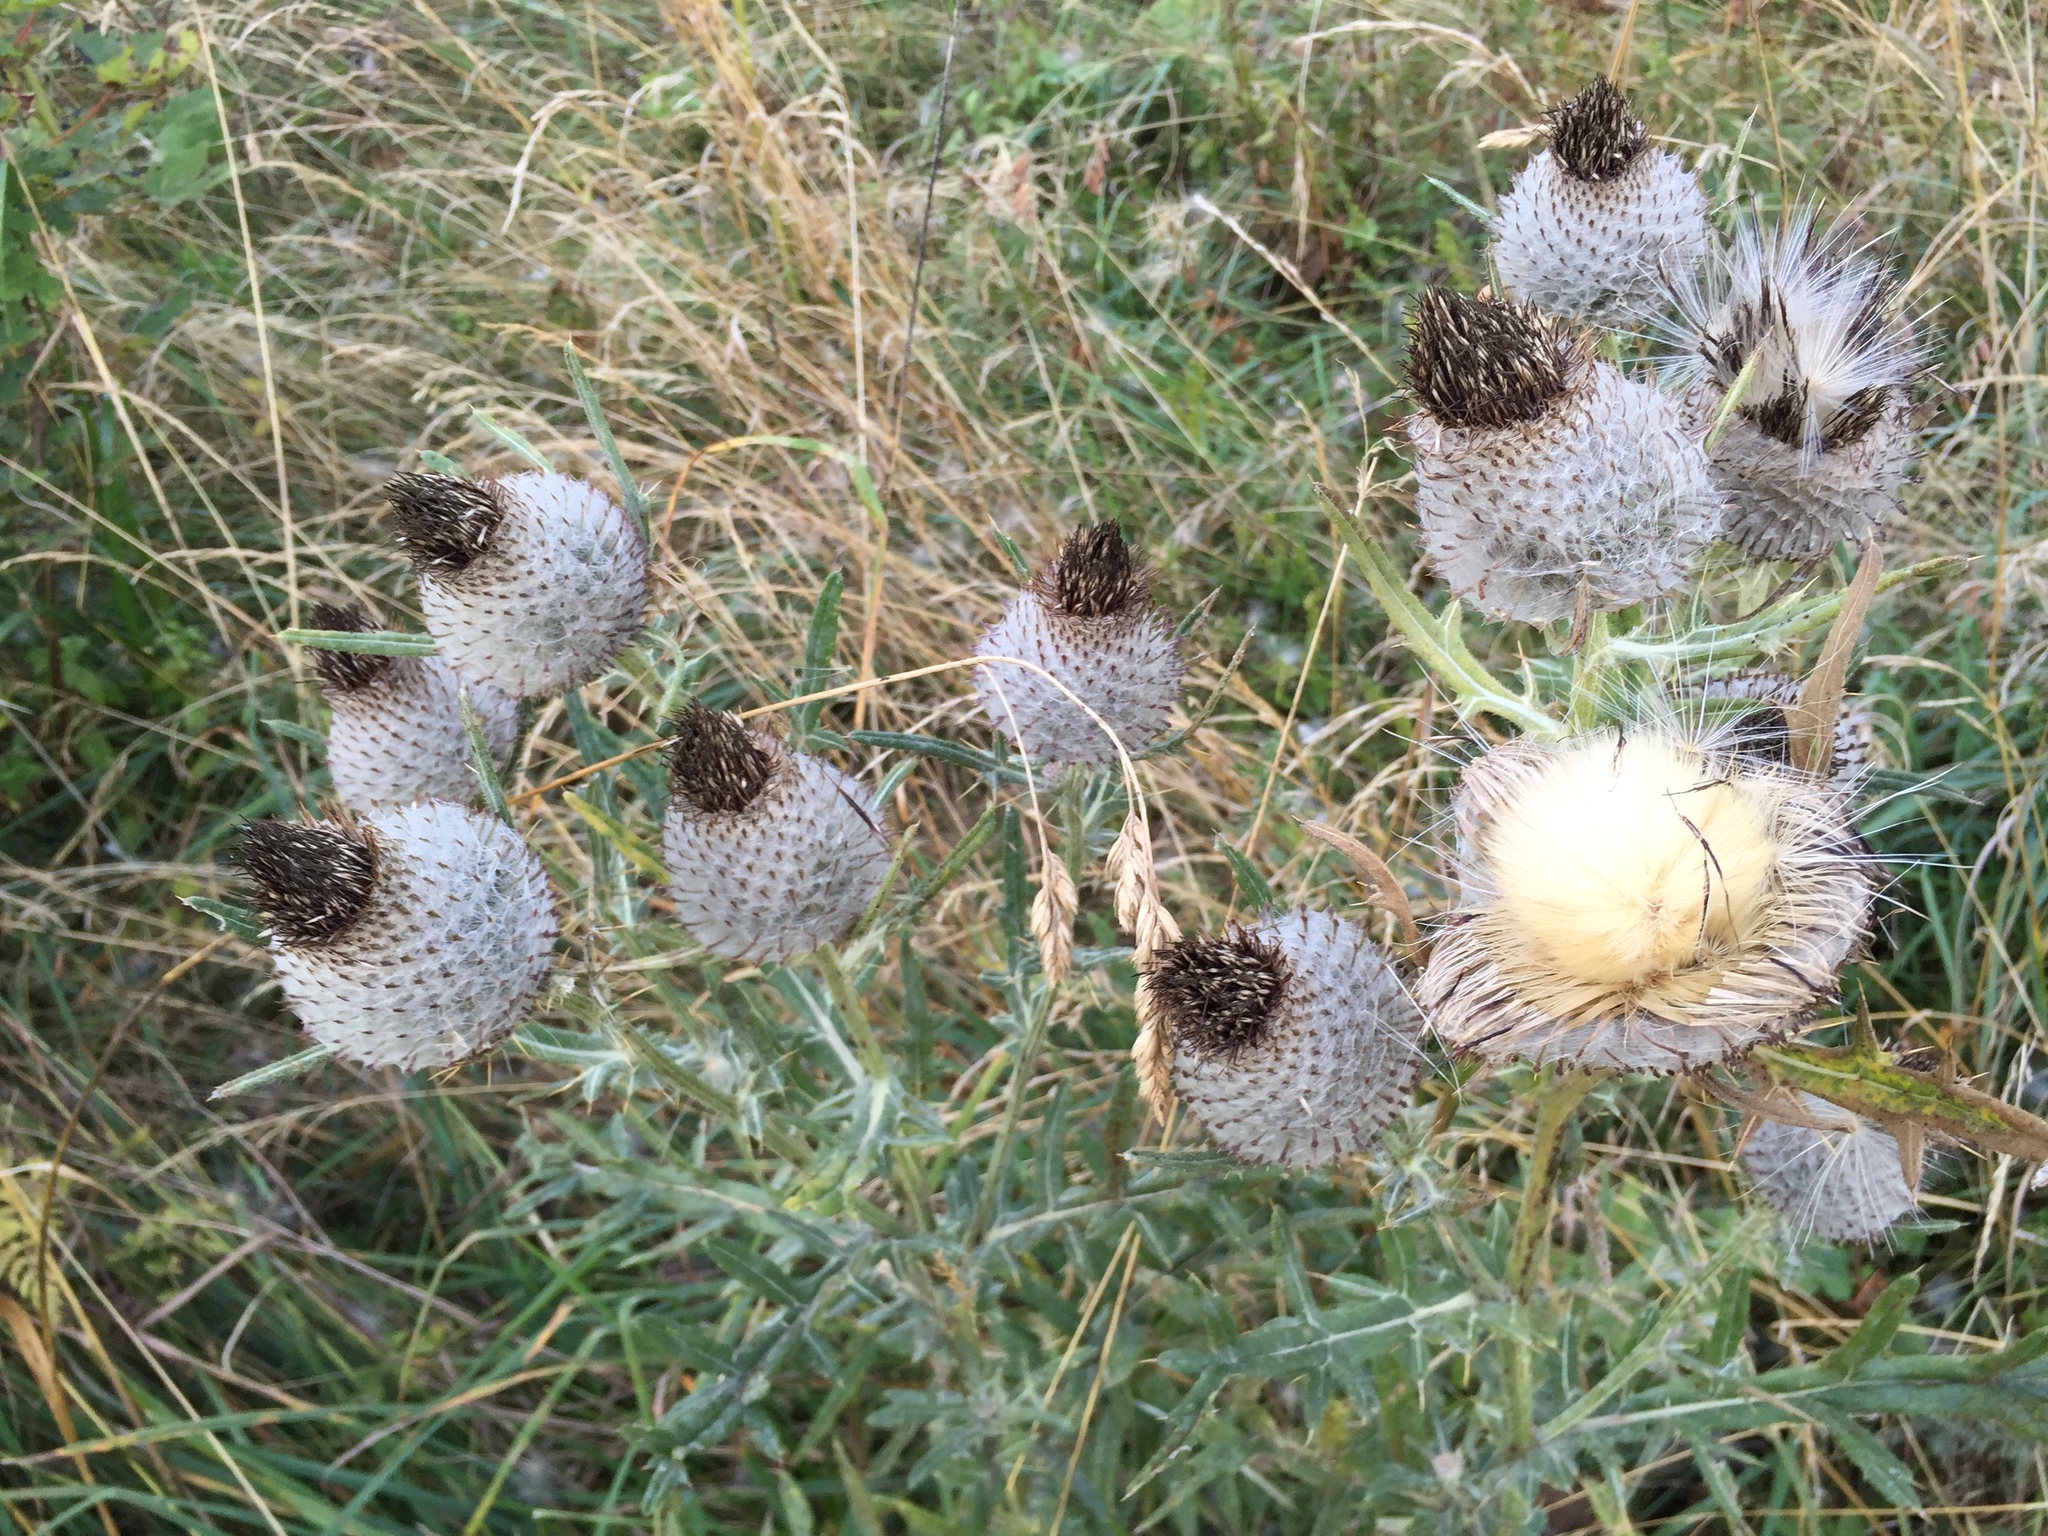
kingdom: Plantae
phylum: Tracheophyta
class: Magnoliopsida
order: Asterales
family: Asteraceae
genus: Lophiolepis
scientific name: Lophiolepis eriophora
